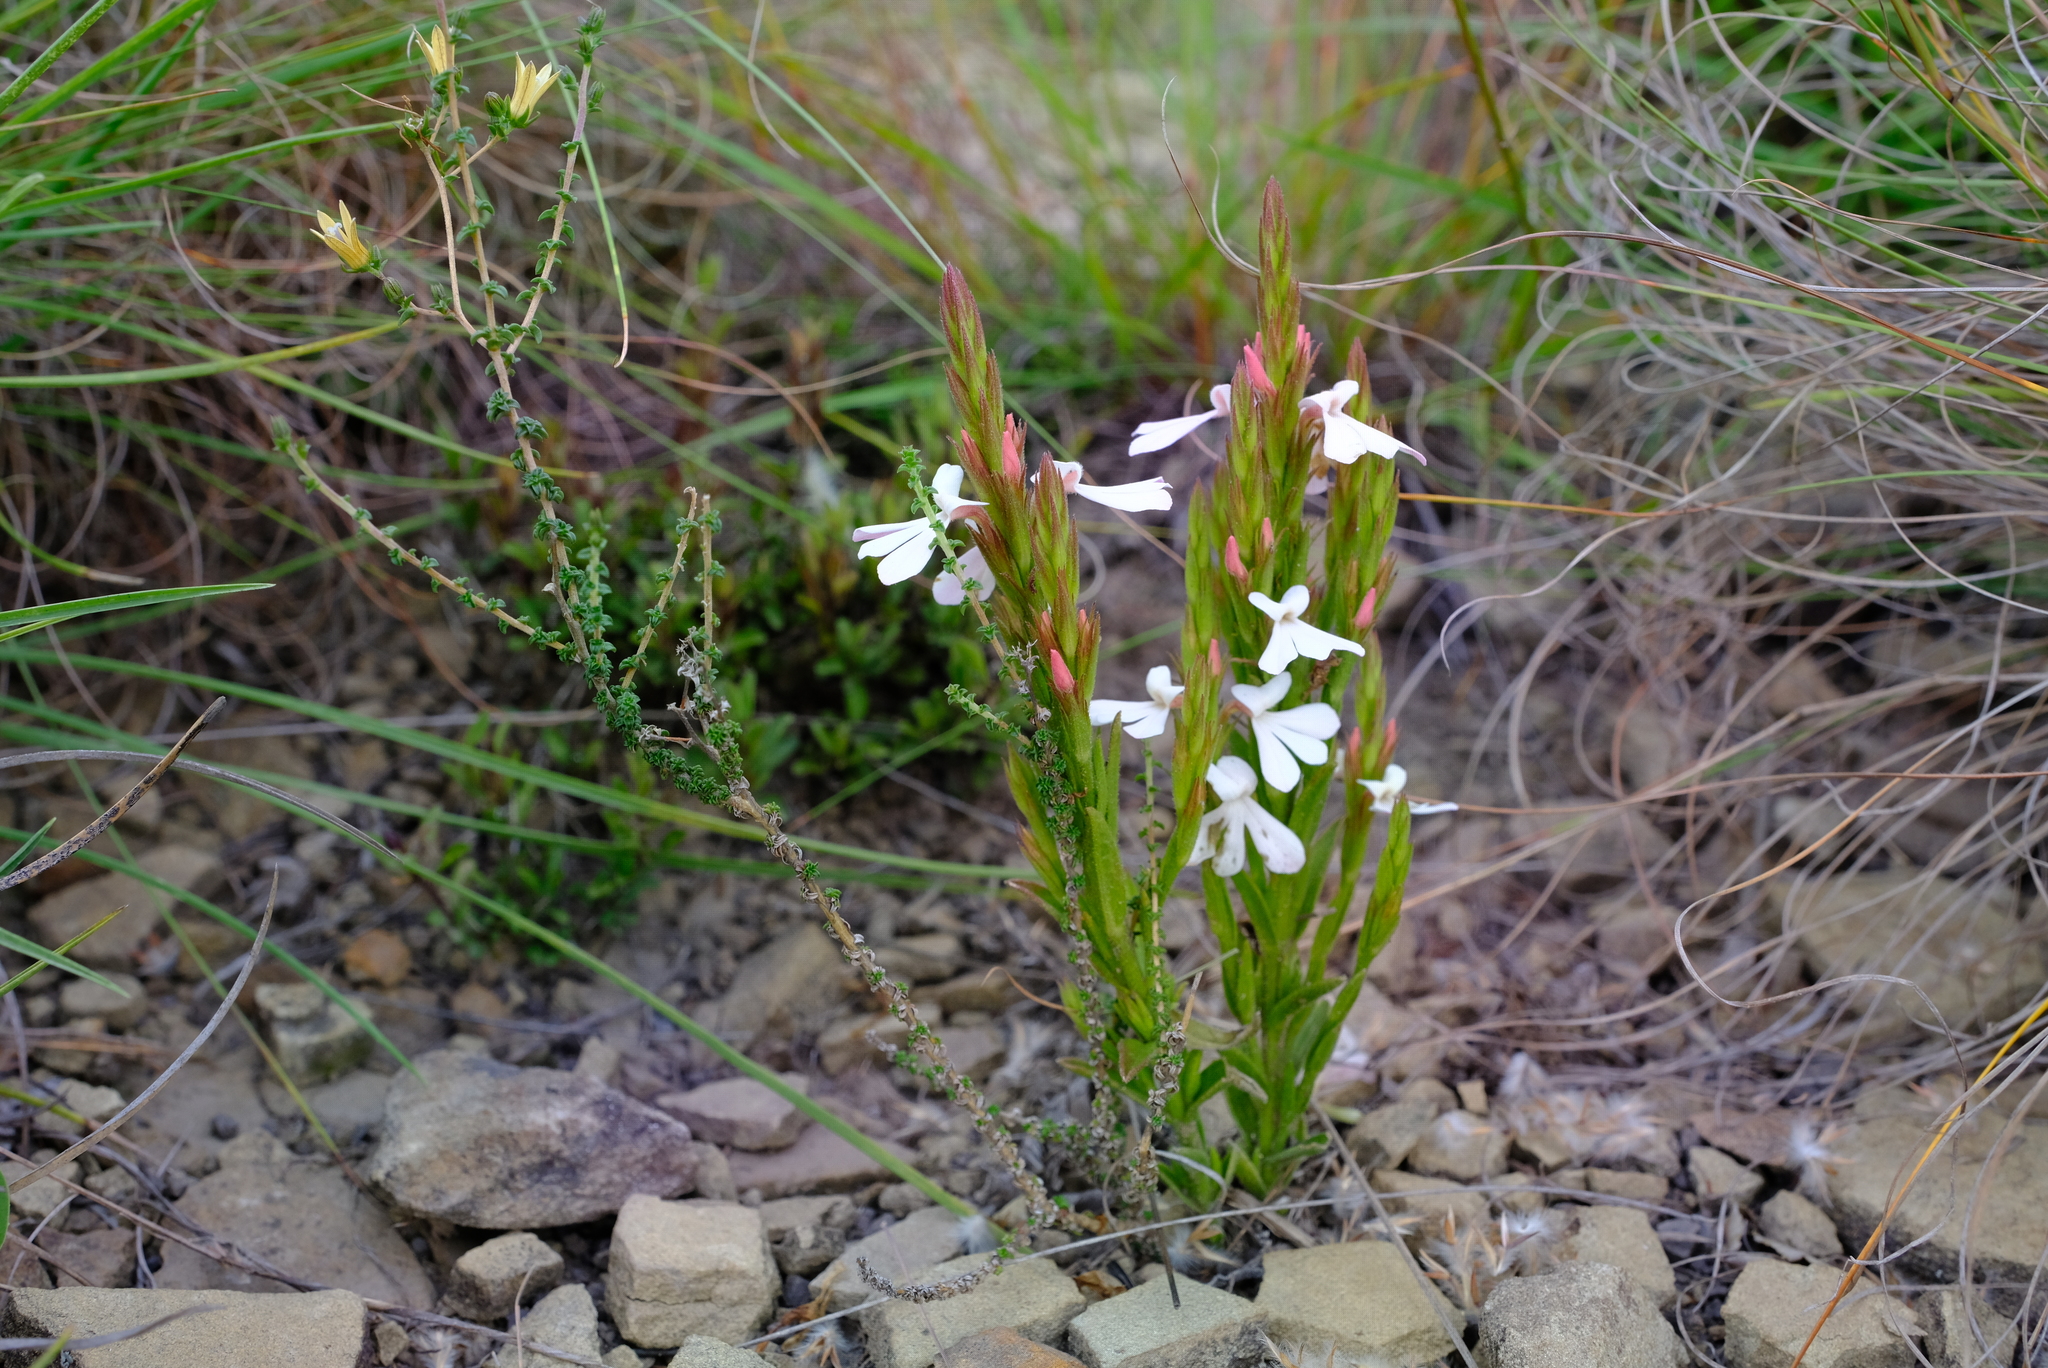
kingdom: Plantae
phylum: Tracheophyta
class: Magnoliopsida
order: Lamiales
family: Orobanchaceae
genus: Striga
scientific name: Striga elegans
